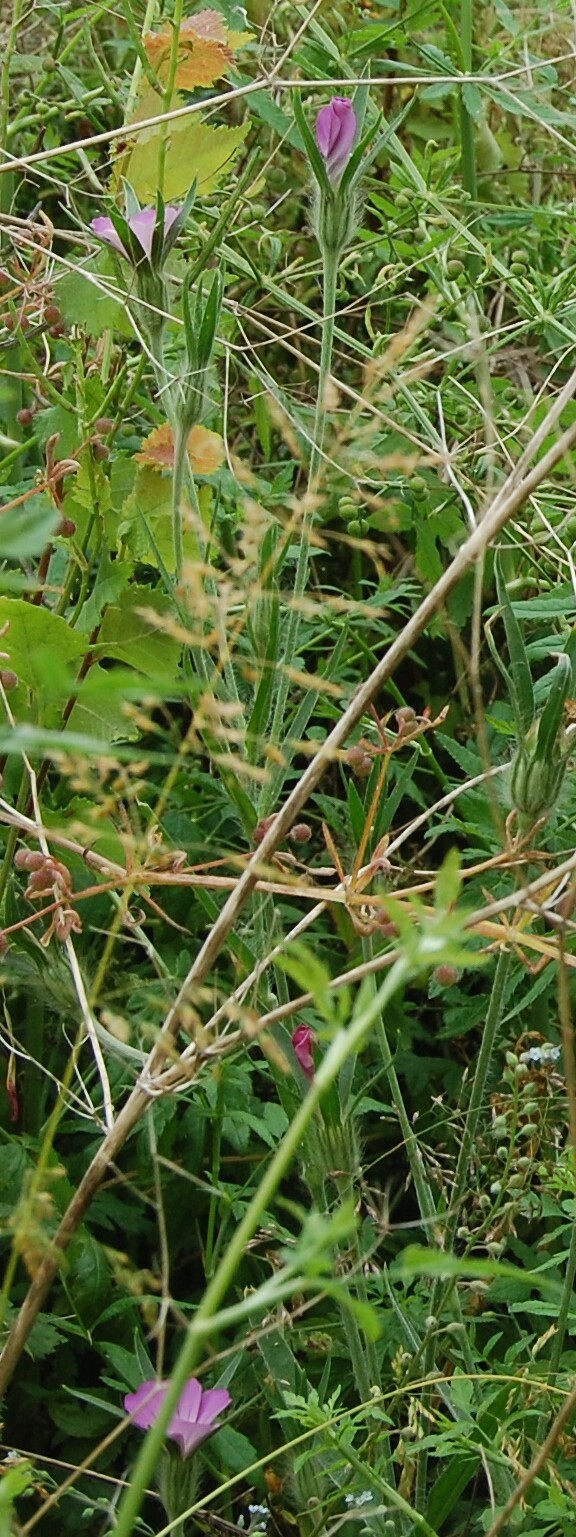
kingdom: Plantae
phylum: Tracheophyta
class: Magnoliopsida
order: Caryophyllales
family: Caryophyllaceae
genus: Agrostemma
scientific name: Agrostemma githago
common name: Common corncockle
